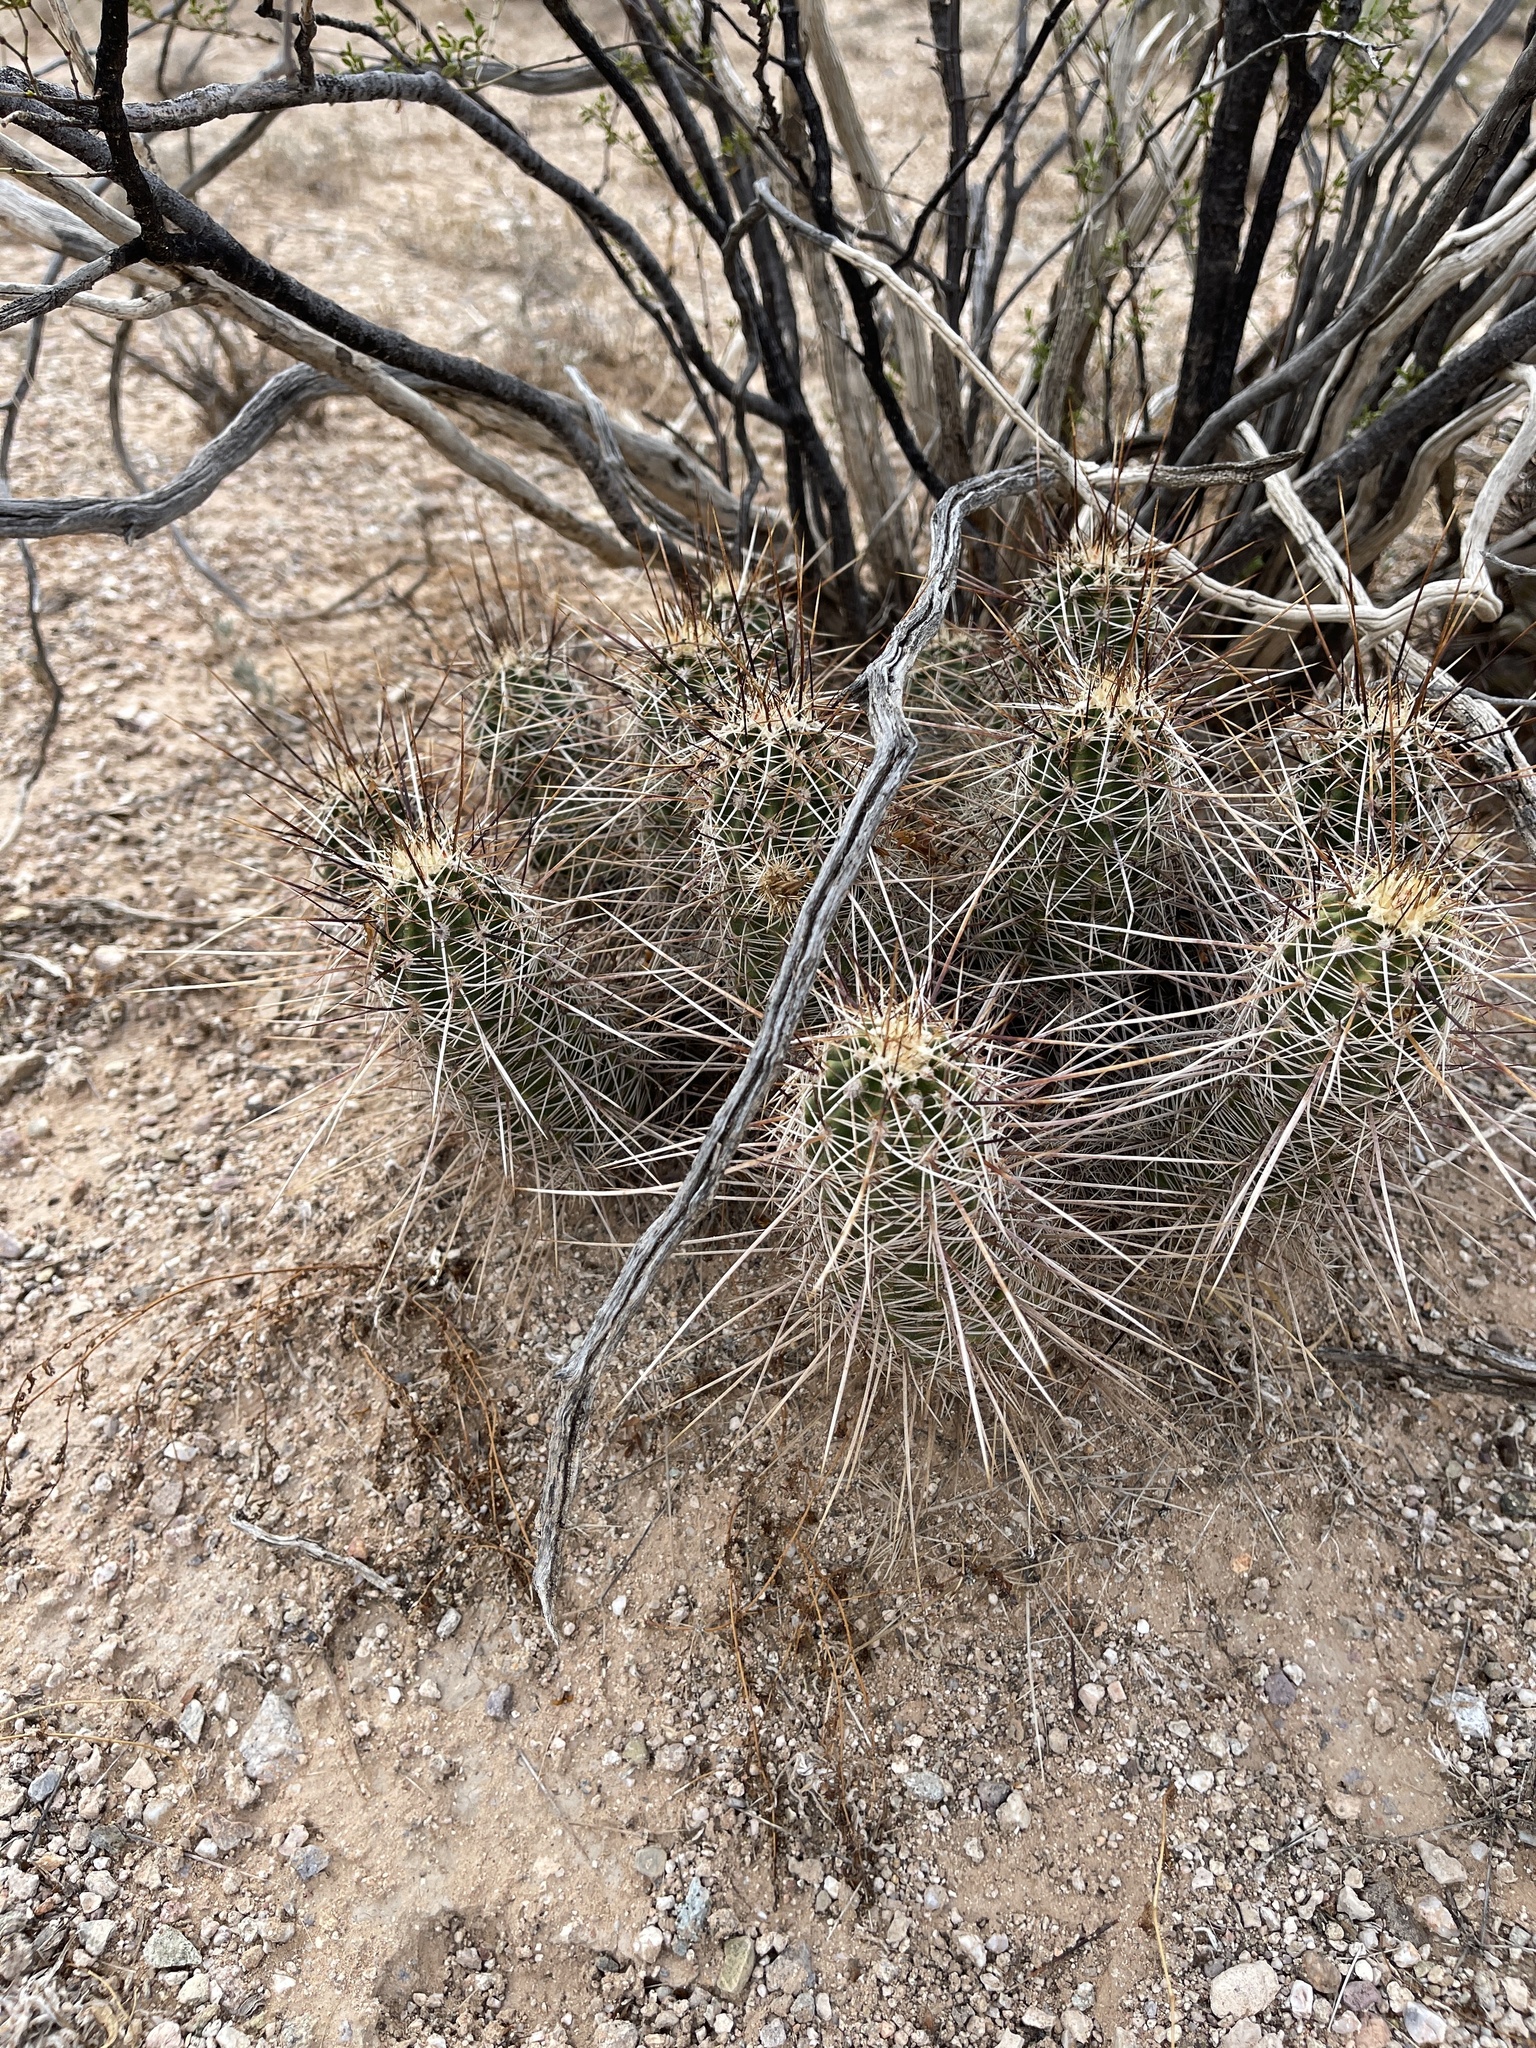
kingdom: Plantae
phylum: Tracheophyta
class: Magnoliopsida
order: Caryophyllales
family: Cactaceae
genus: Echinocereus
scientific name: Echinocereus fasciculatus
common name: Bundle hedgehog
